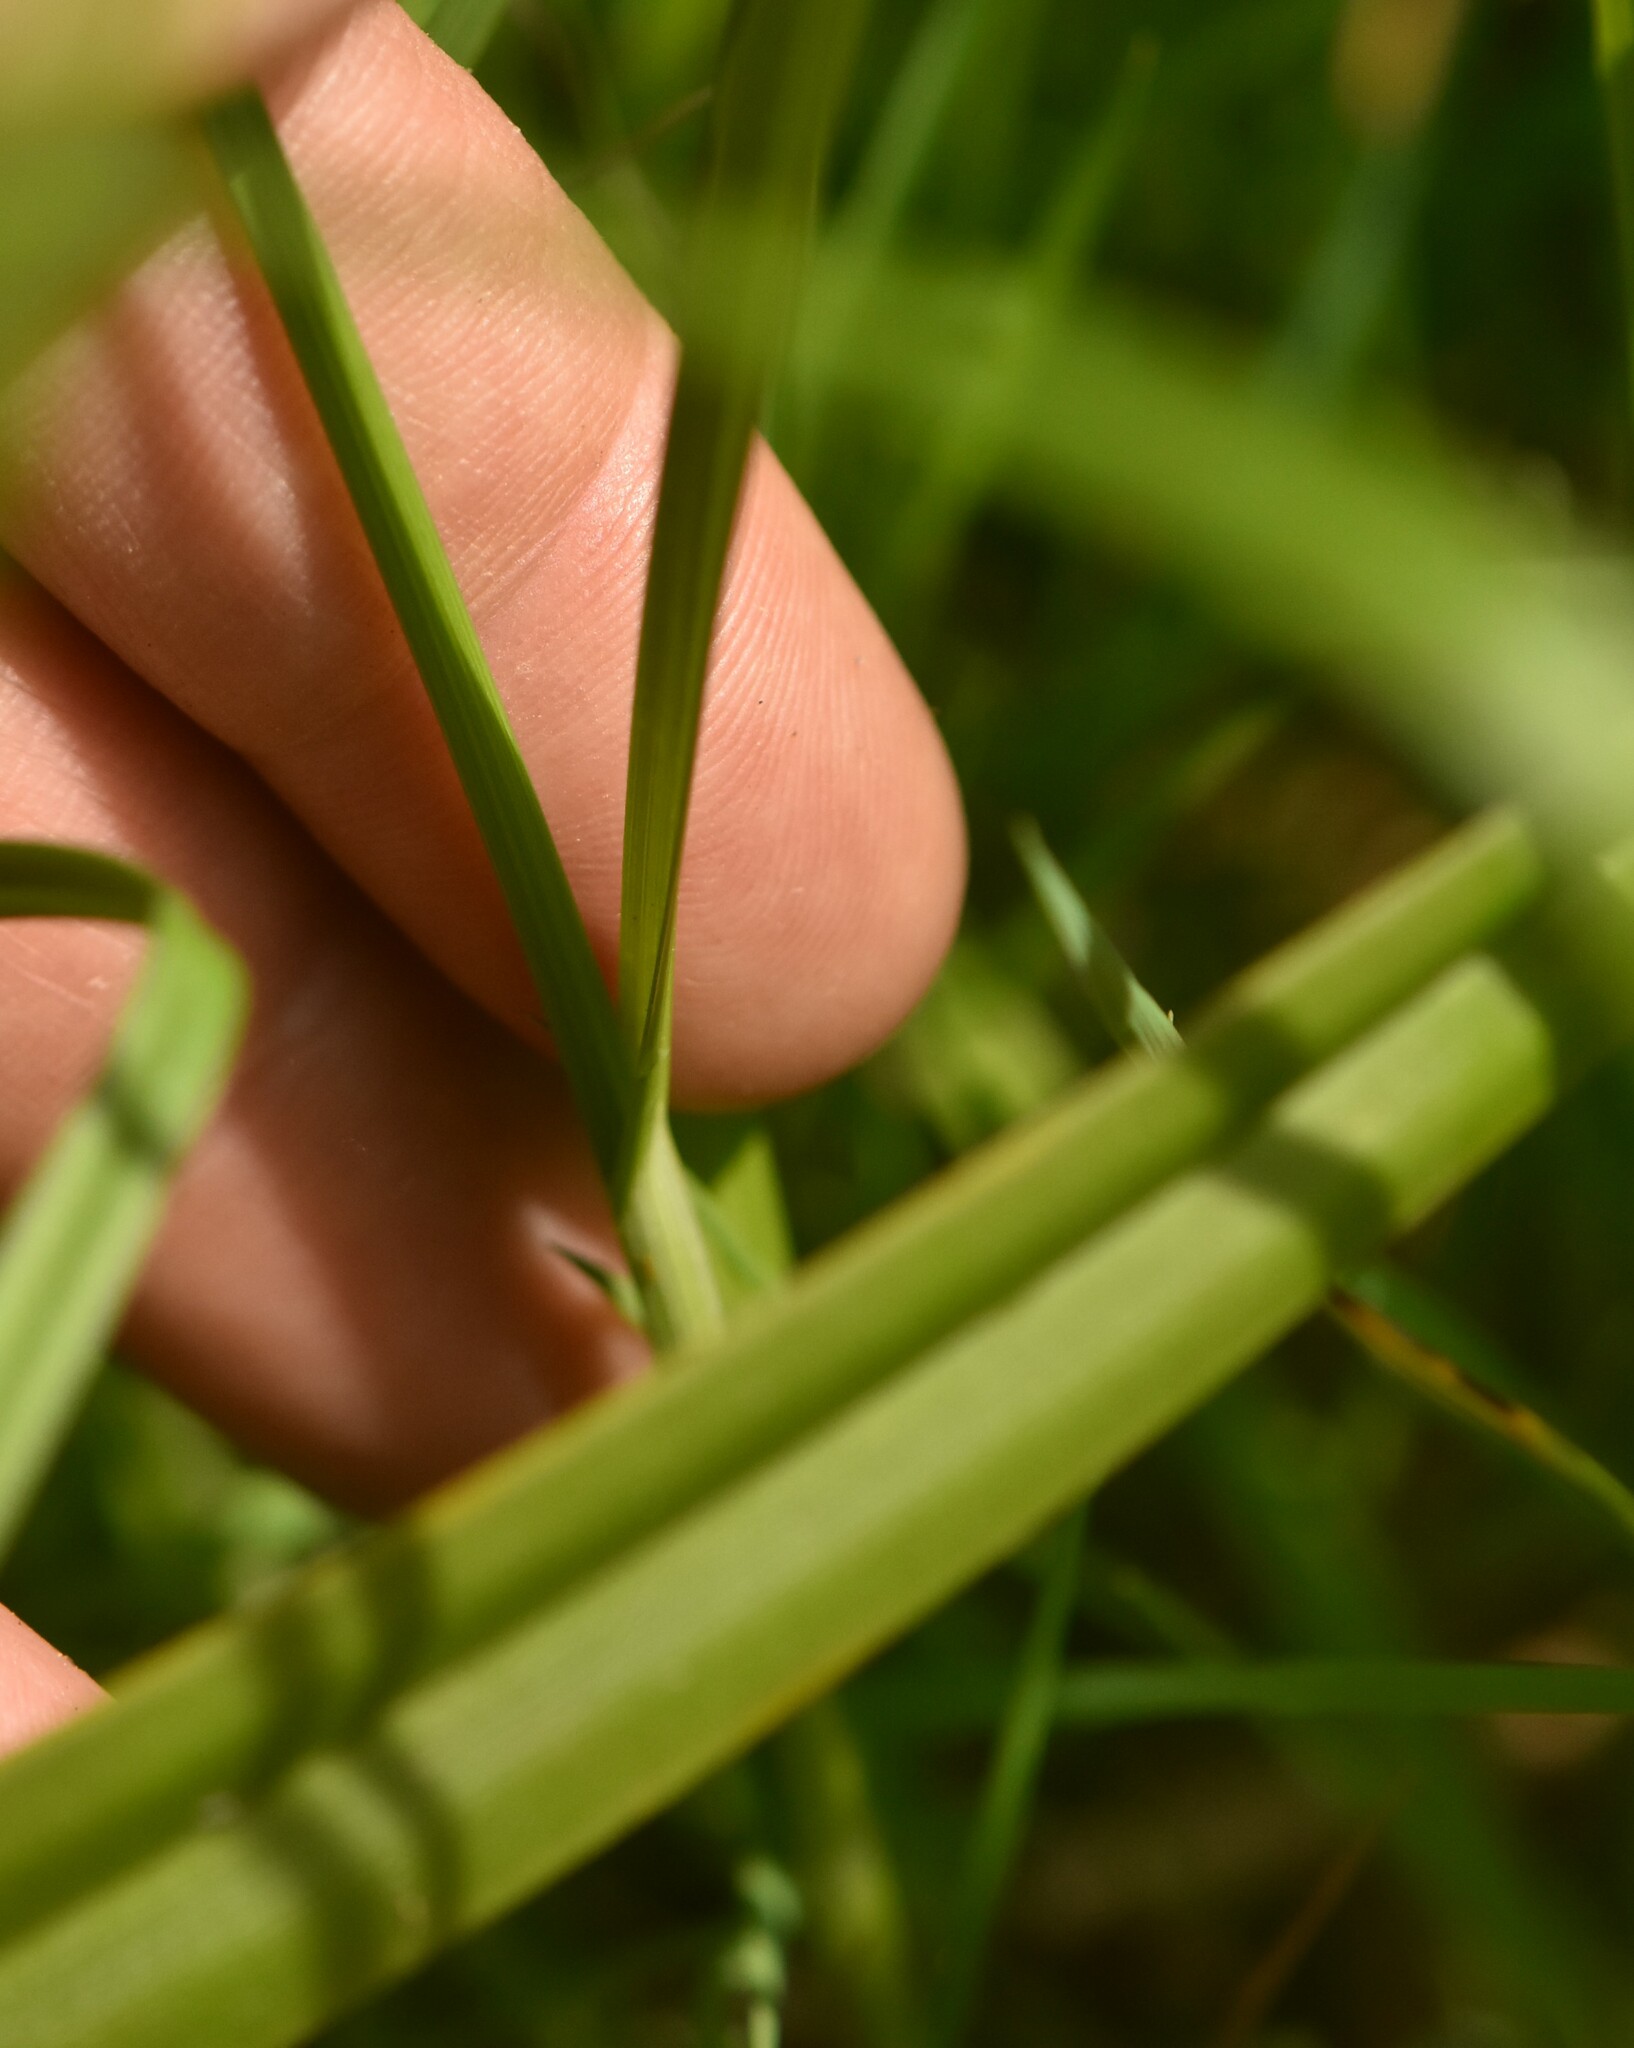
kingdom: Plantae
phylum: Tracheophyta
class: Liliopsida
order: Poales
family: Cyperaceae
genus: Carex
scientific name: Carex leporina
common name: Oval sedge
